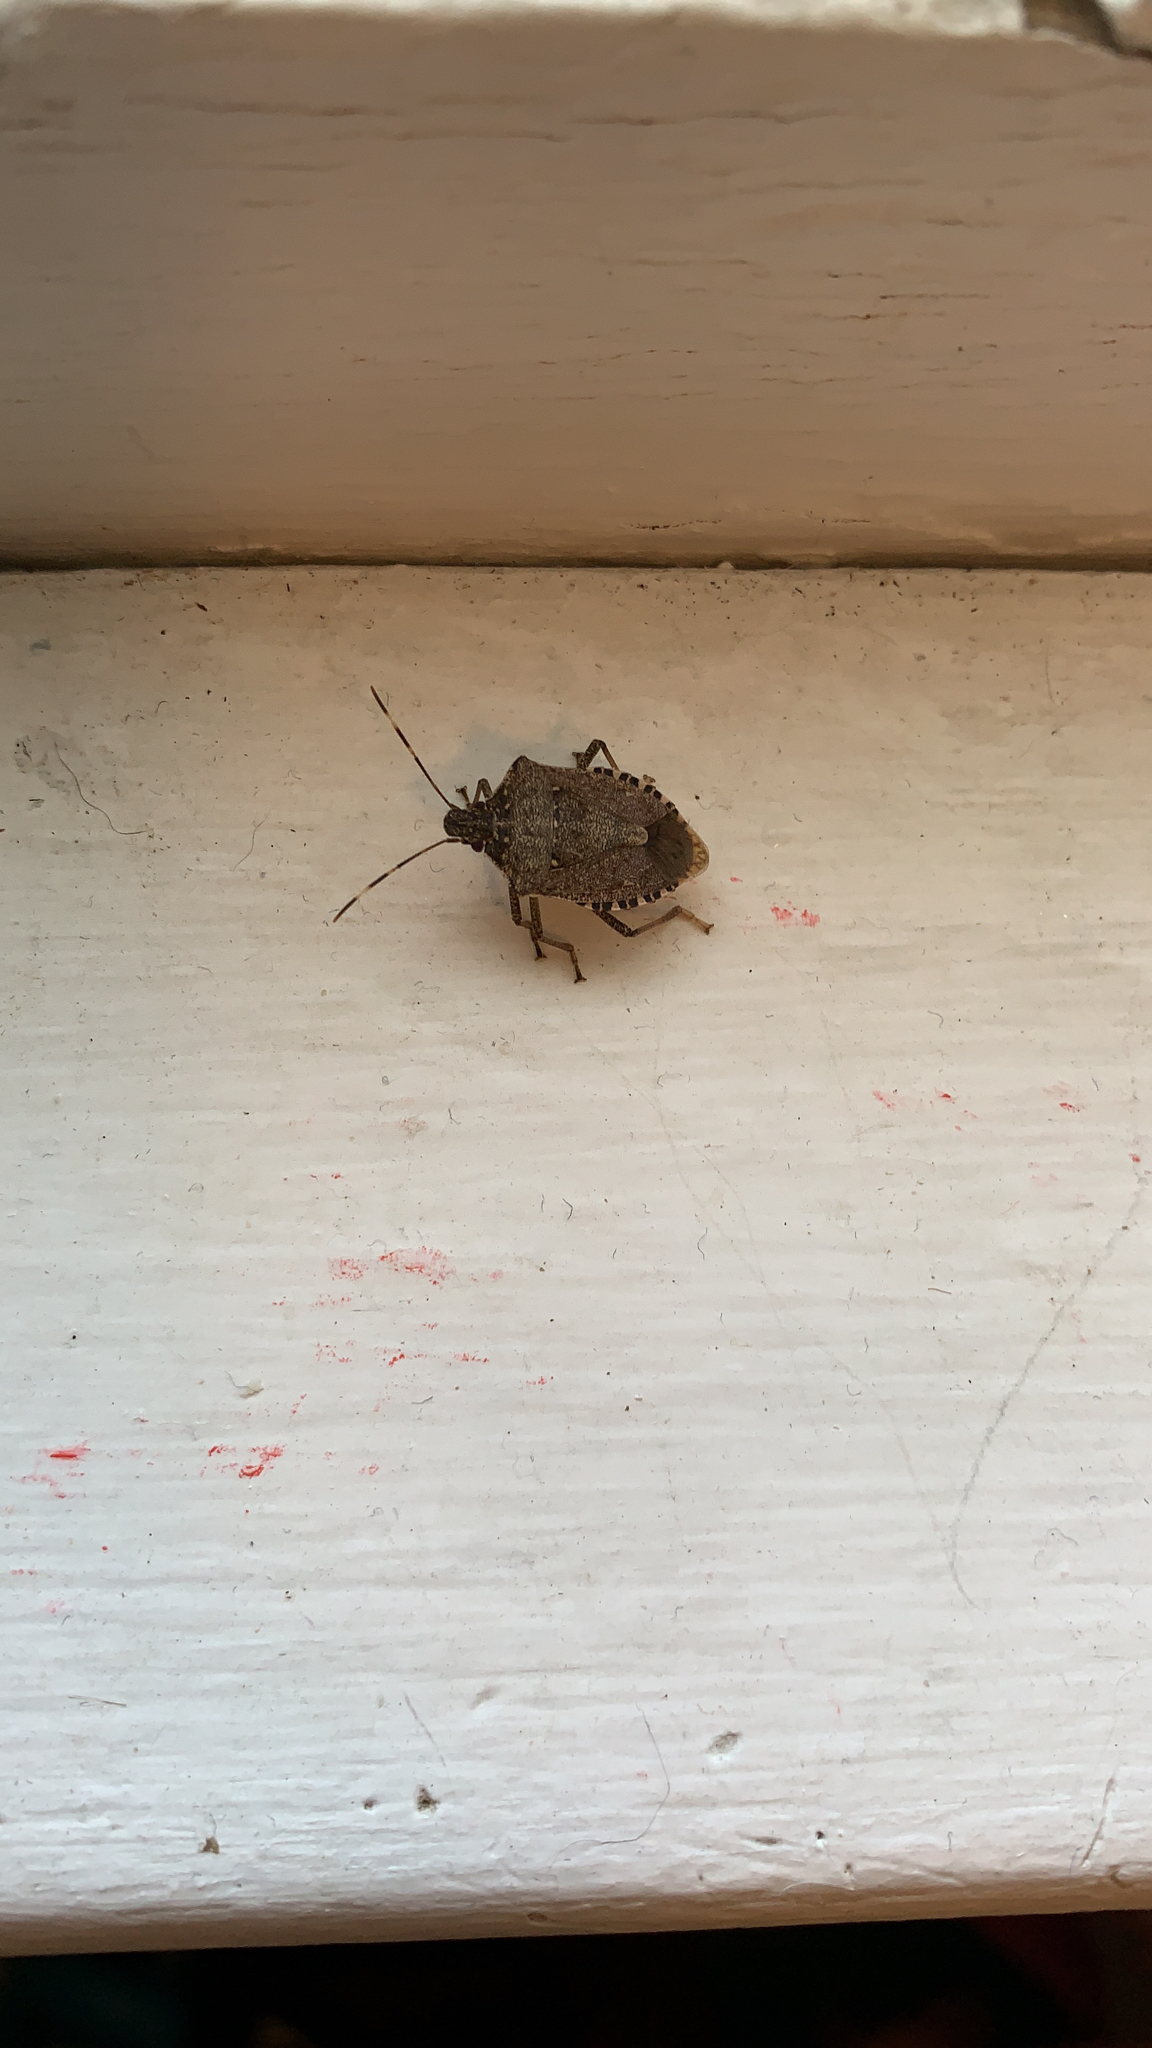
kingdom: Animalia
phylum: Arthropoda
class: Insecta
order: Hemiptera
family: Pentatomidae
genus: Halyomorpha
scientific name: Halyomorpha halys
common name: Brown marmorated stink bug
